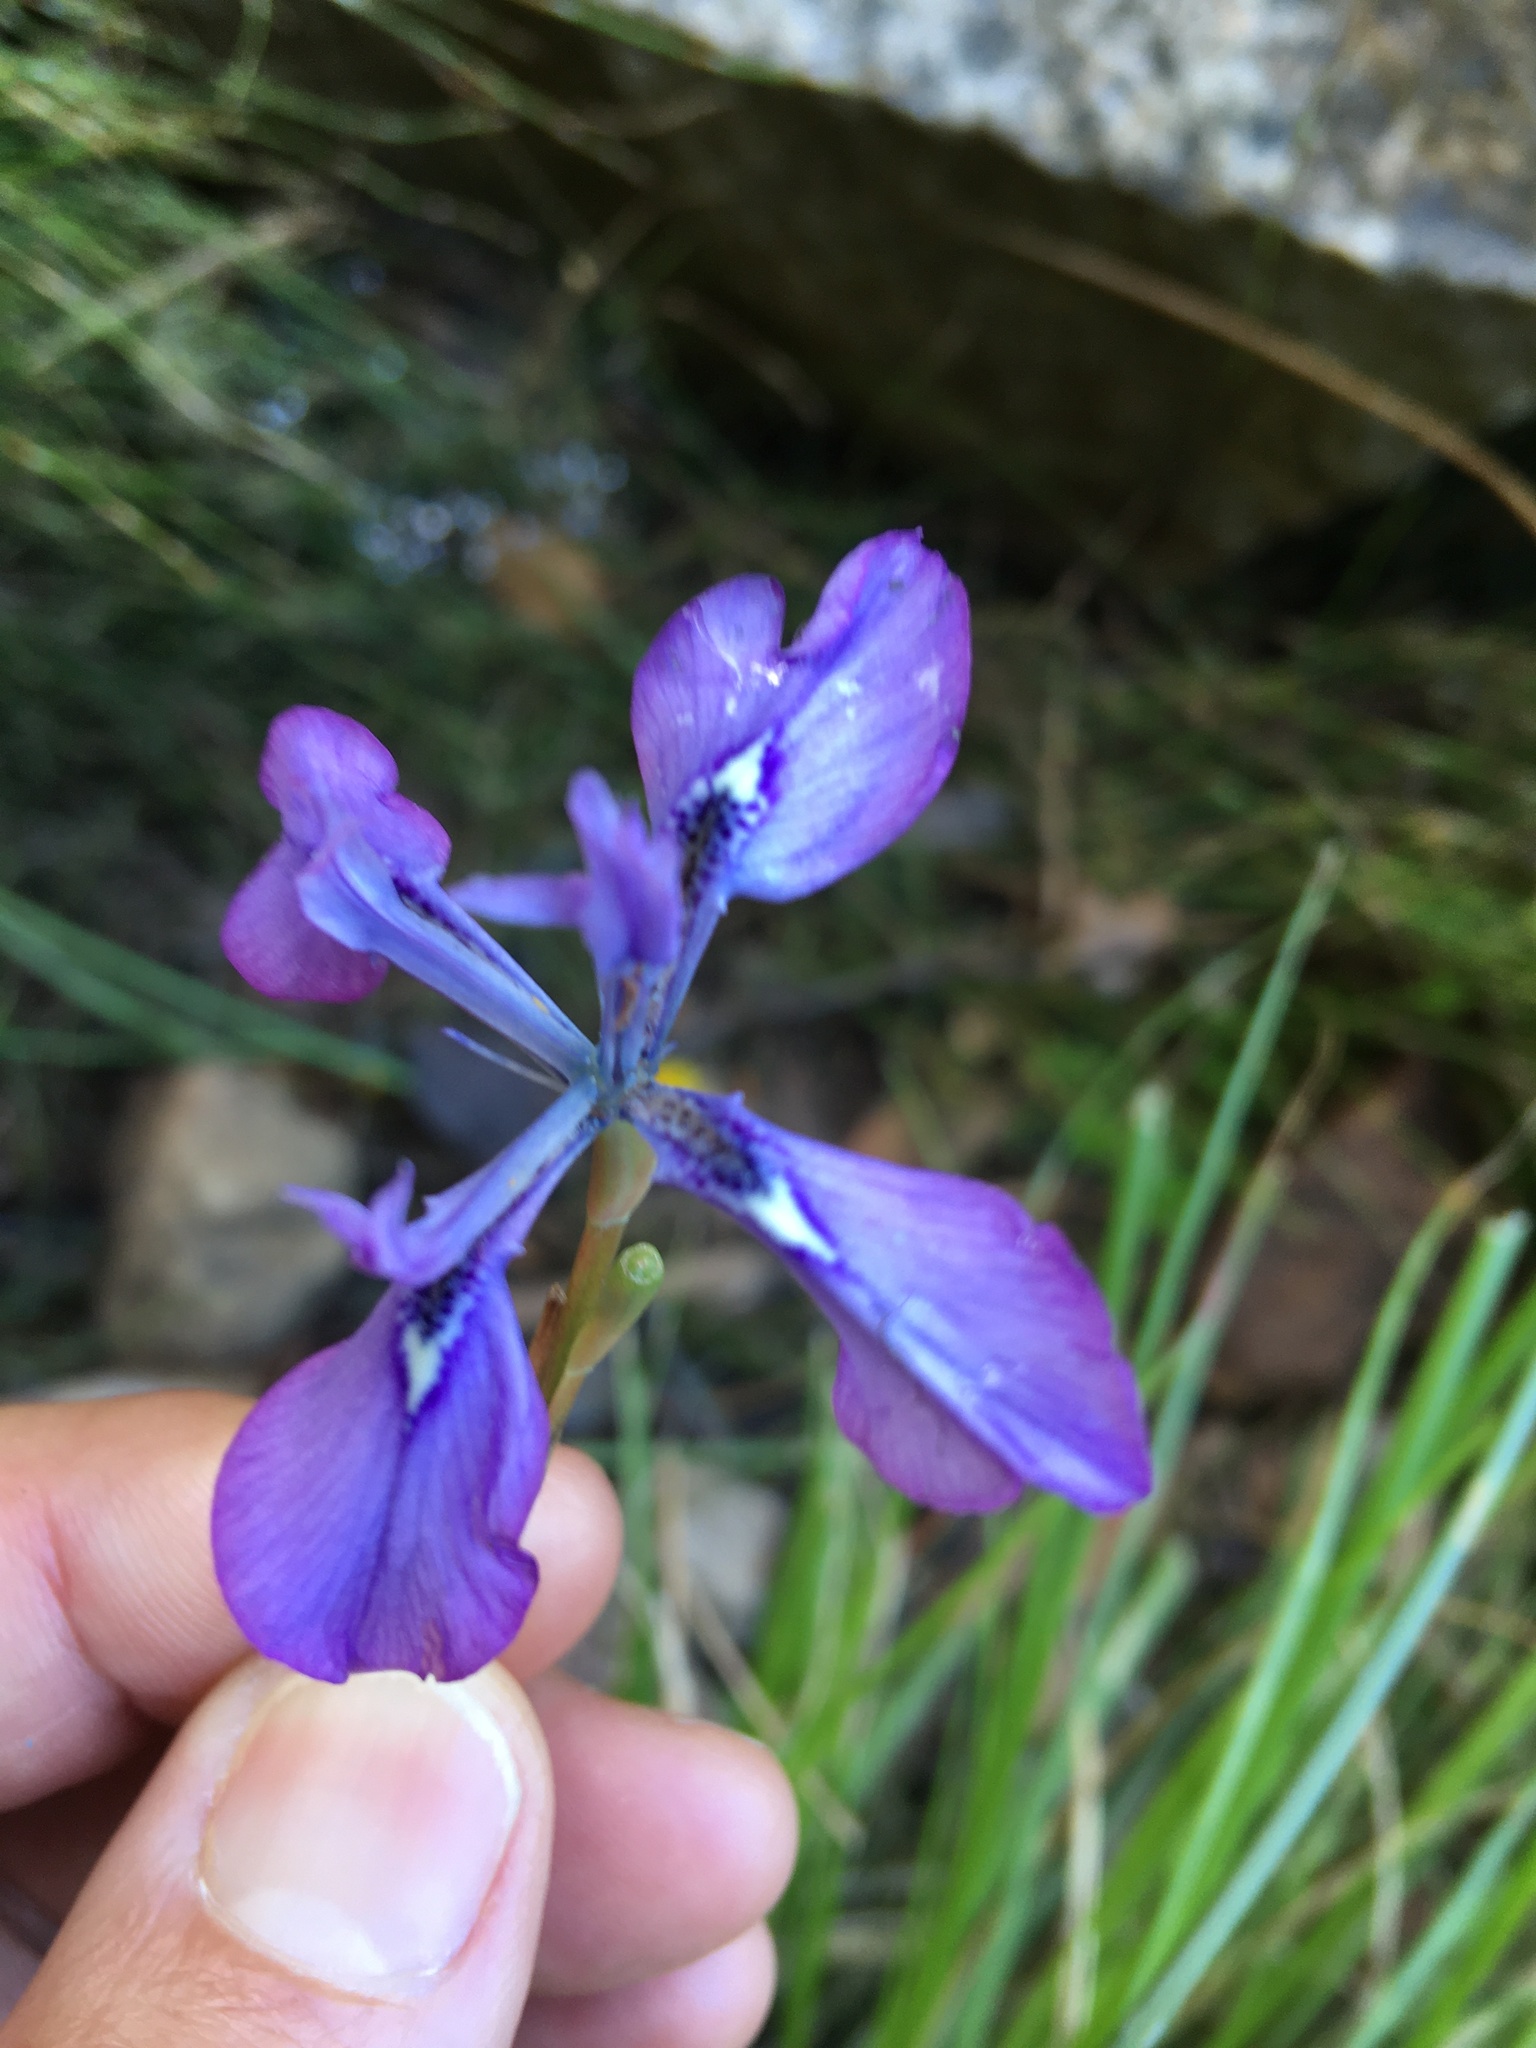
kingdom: Plantae
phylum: Tracheophyta
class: Liliopsida
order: Asparagales
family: Iridaceae
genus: Moraea
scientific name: Moraea tripetala
